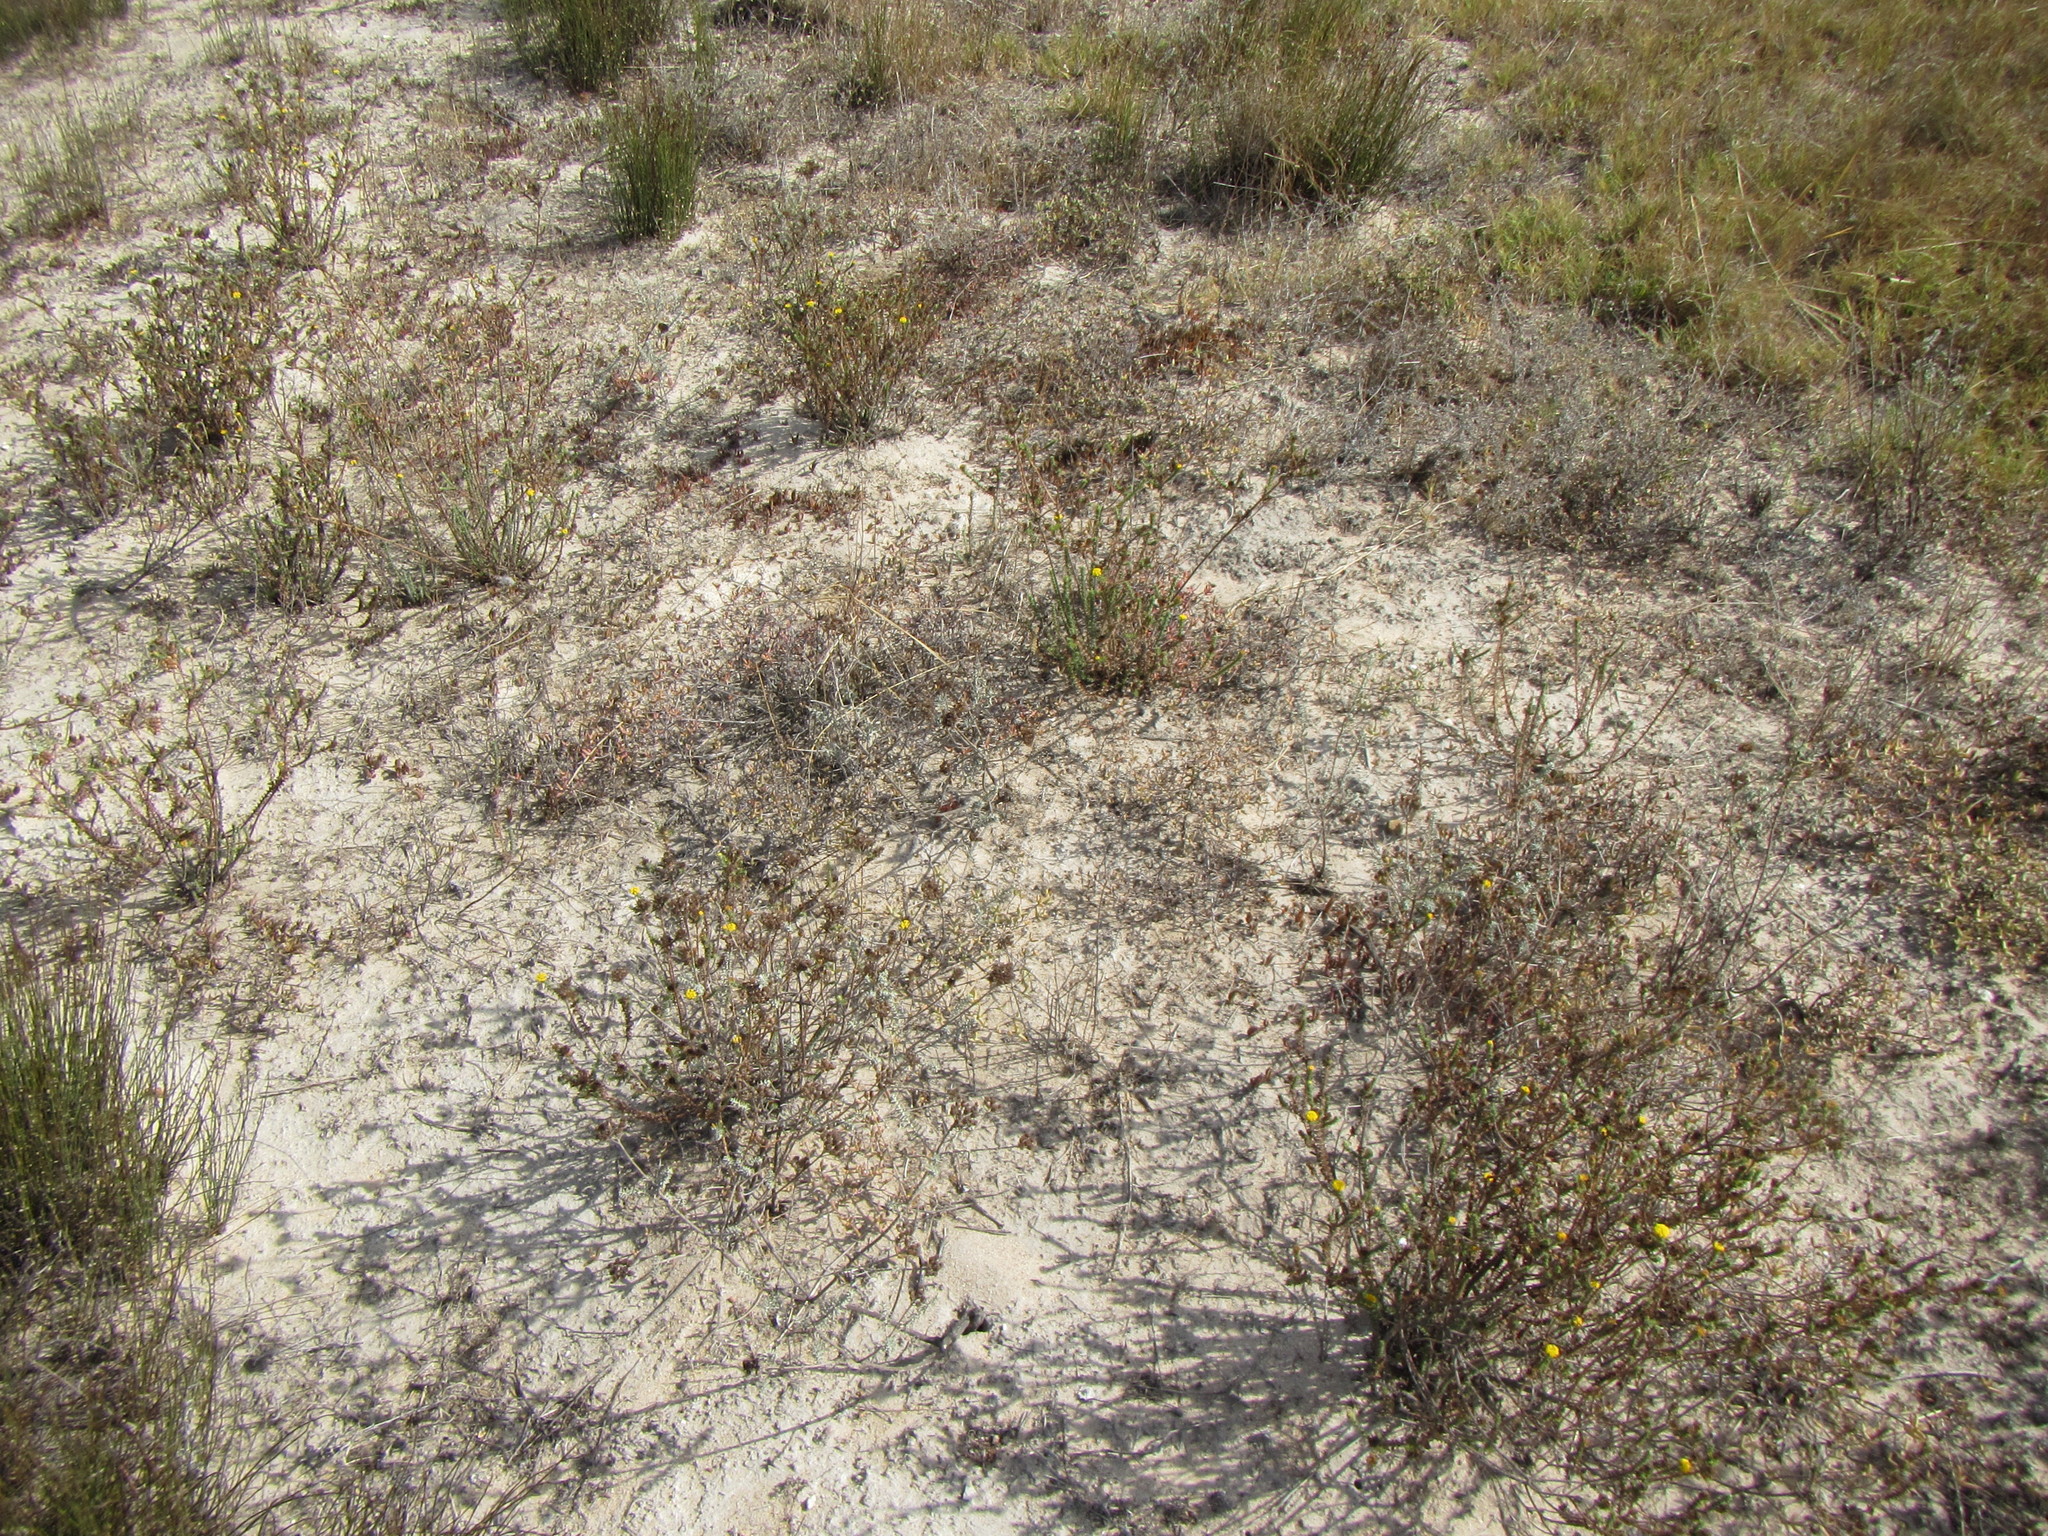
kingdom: Plantae
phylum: Tracheophyta
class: Magnoliopsida
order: Asterales
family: Asteraceae
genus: Athanasia
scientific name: Athanasia capitata
